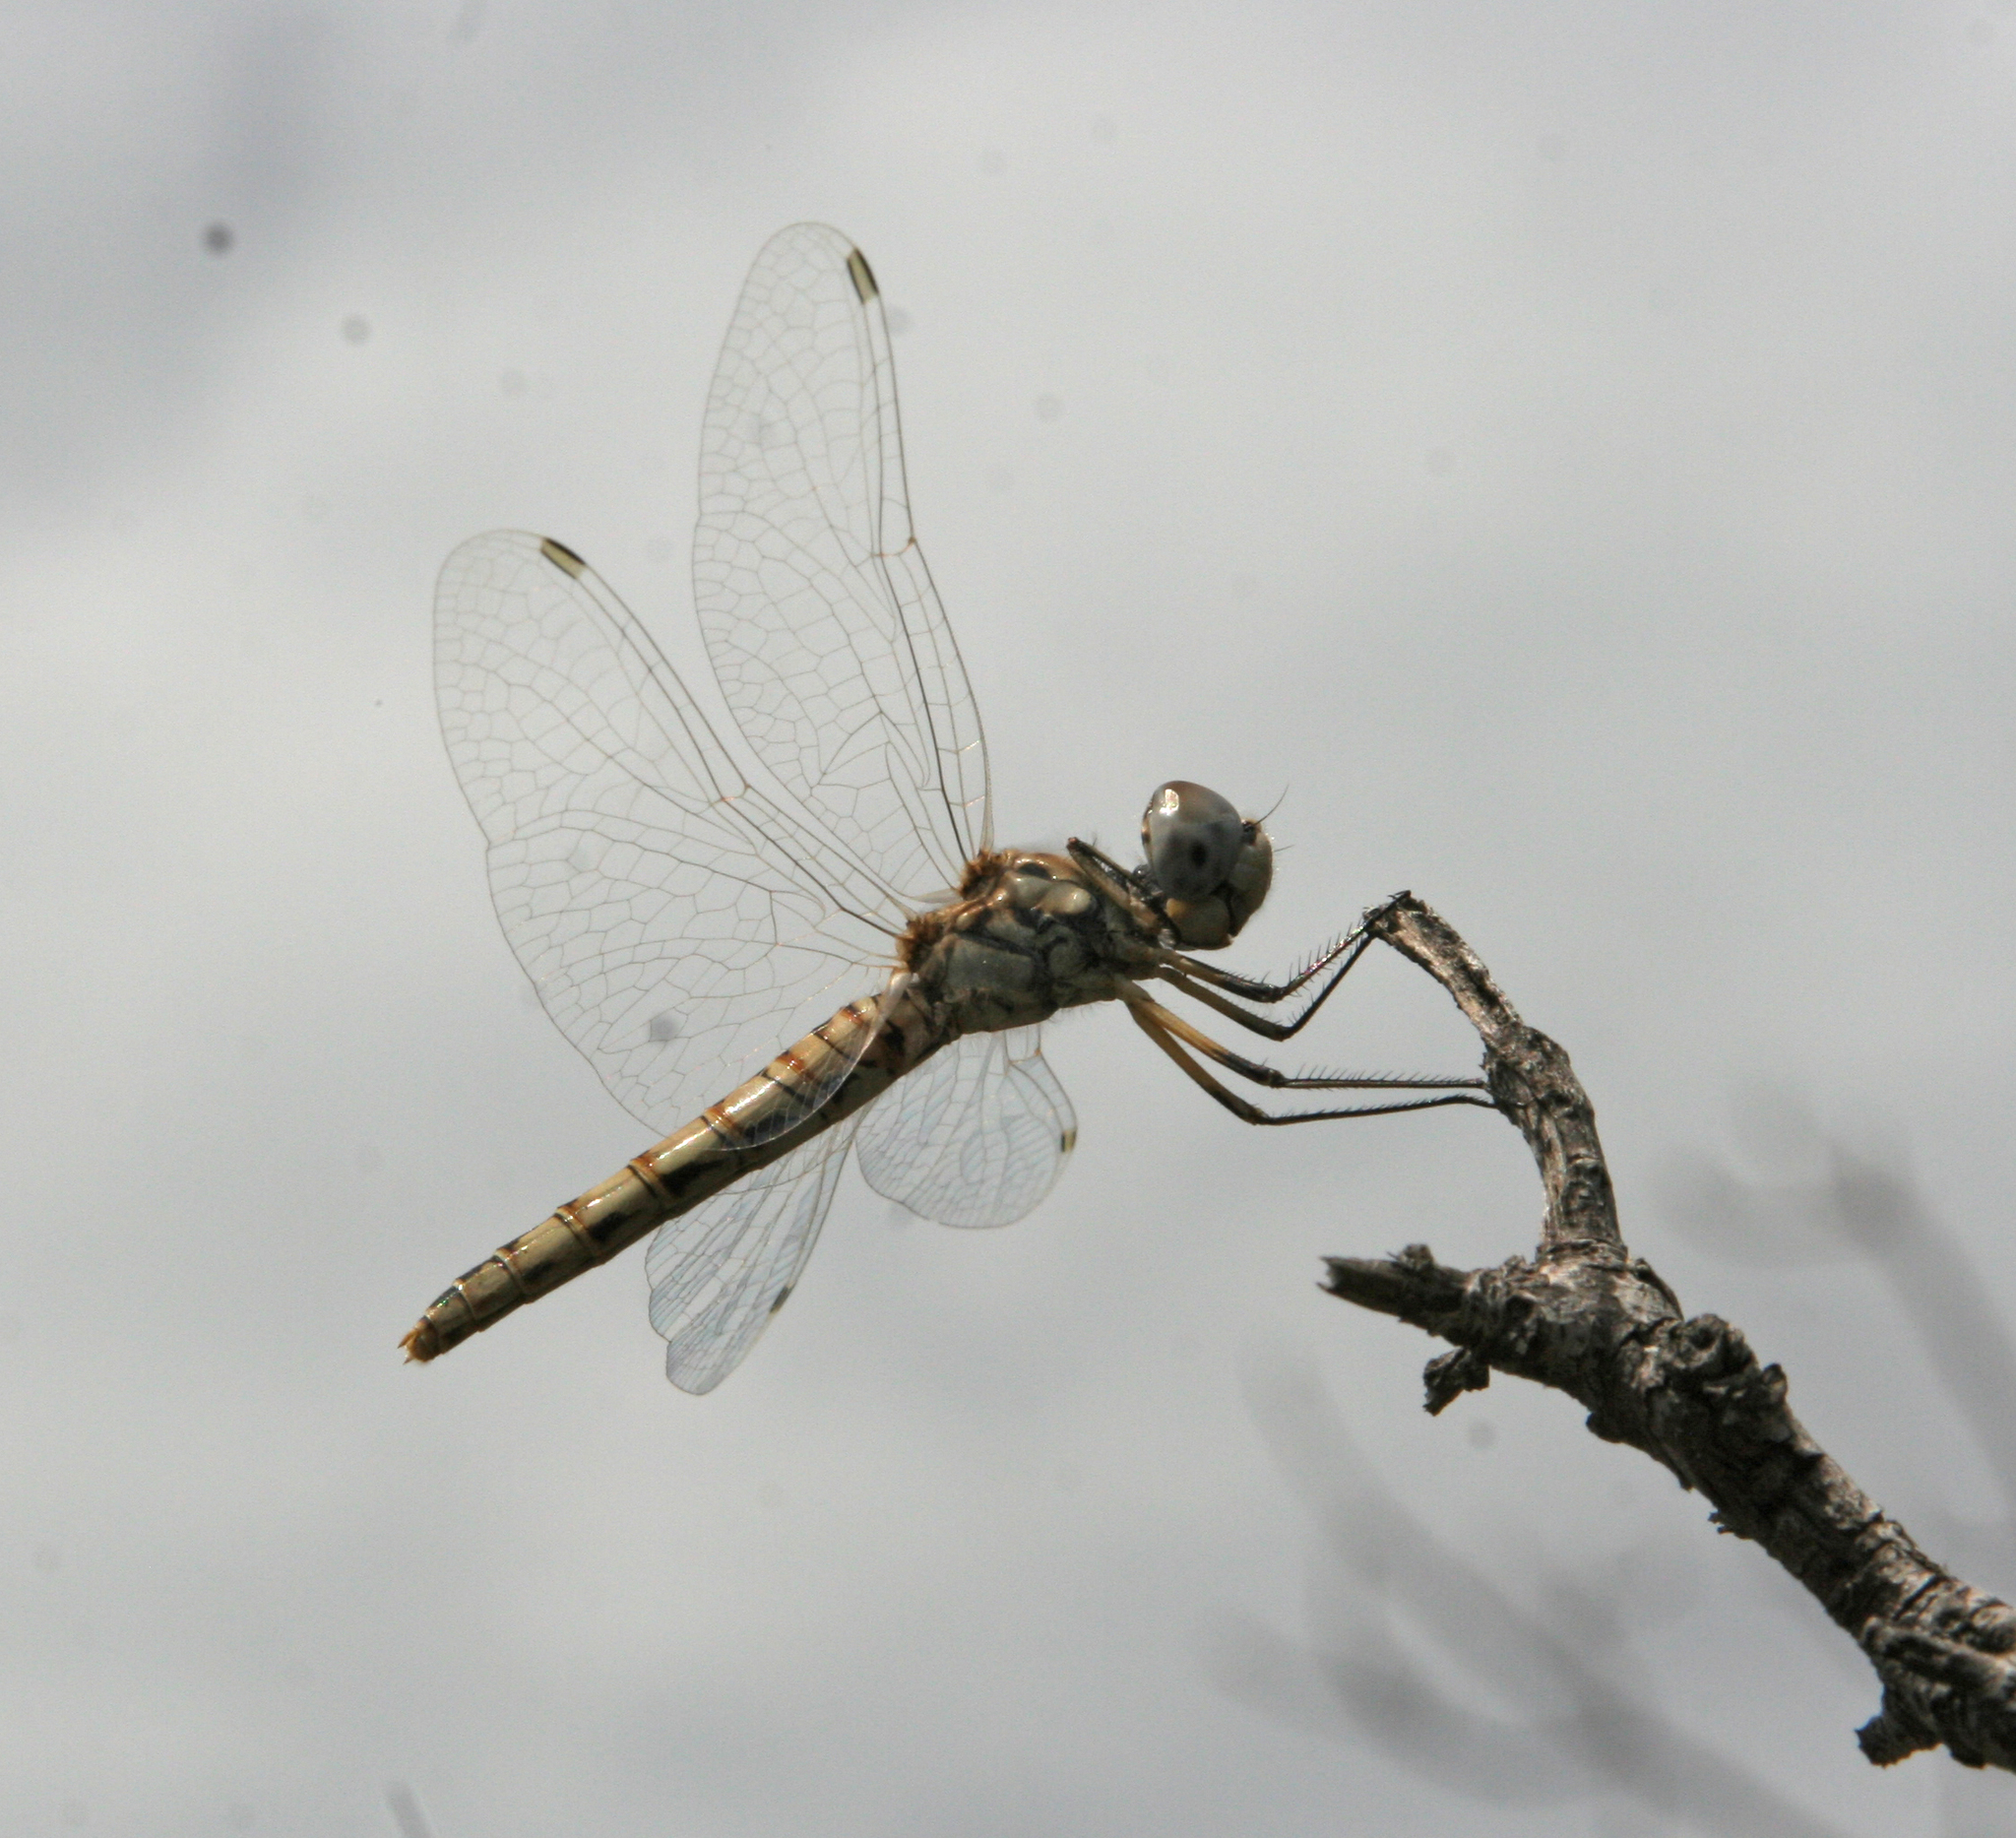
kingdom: Animalia
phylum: Arthropoda
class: Insecta
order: Odonata
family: Libellulidae
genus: Selysiothemis
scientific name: Selysiothemis nigra
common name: Black pennant
